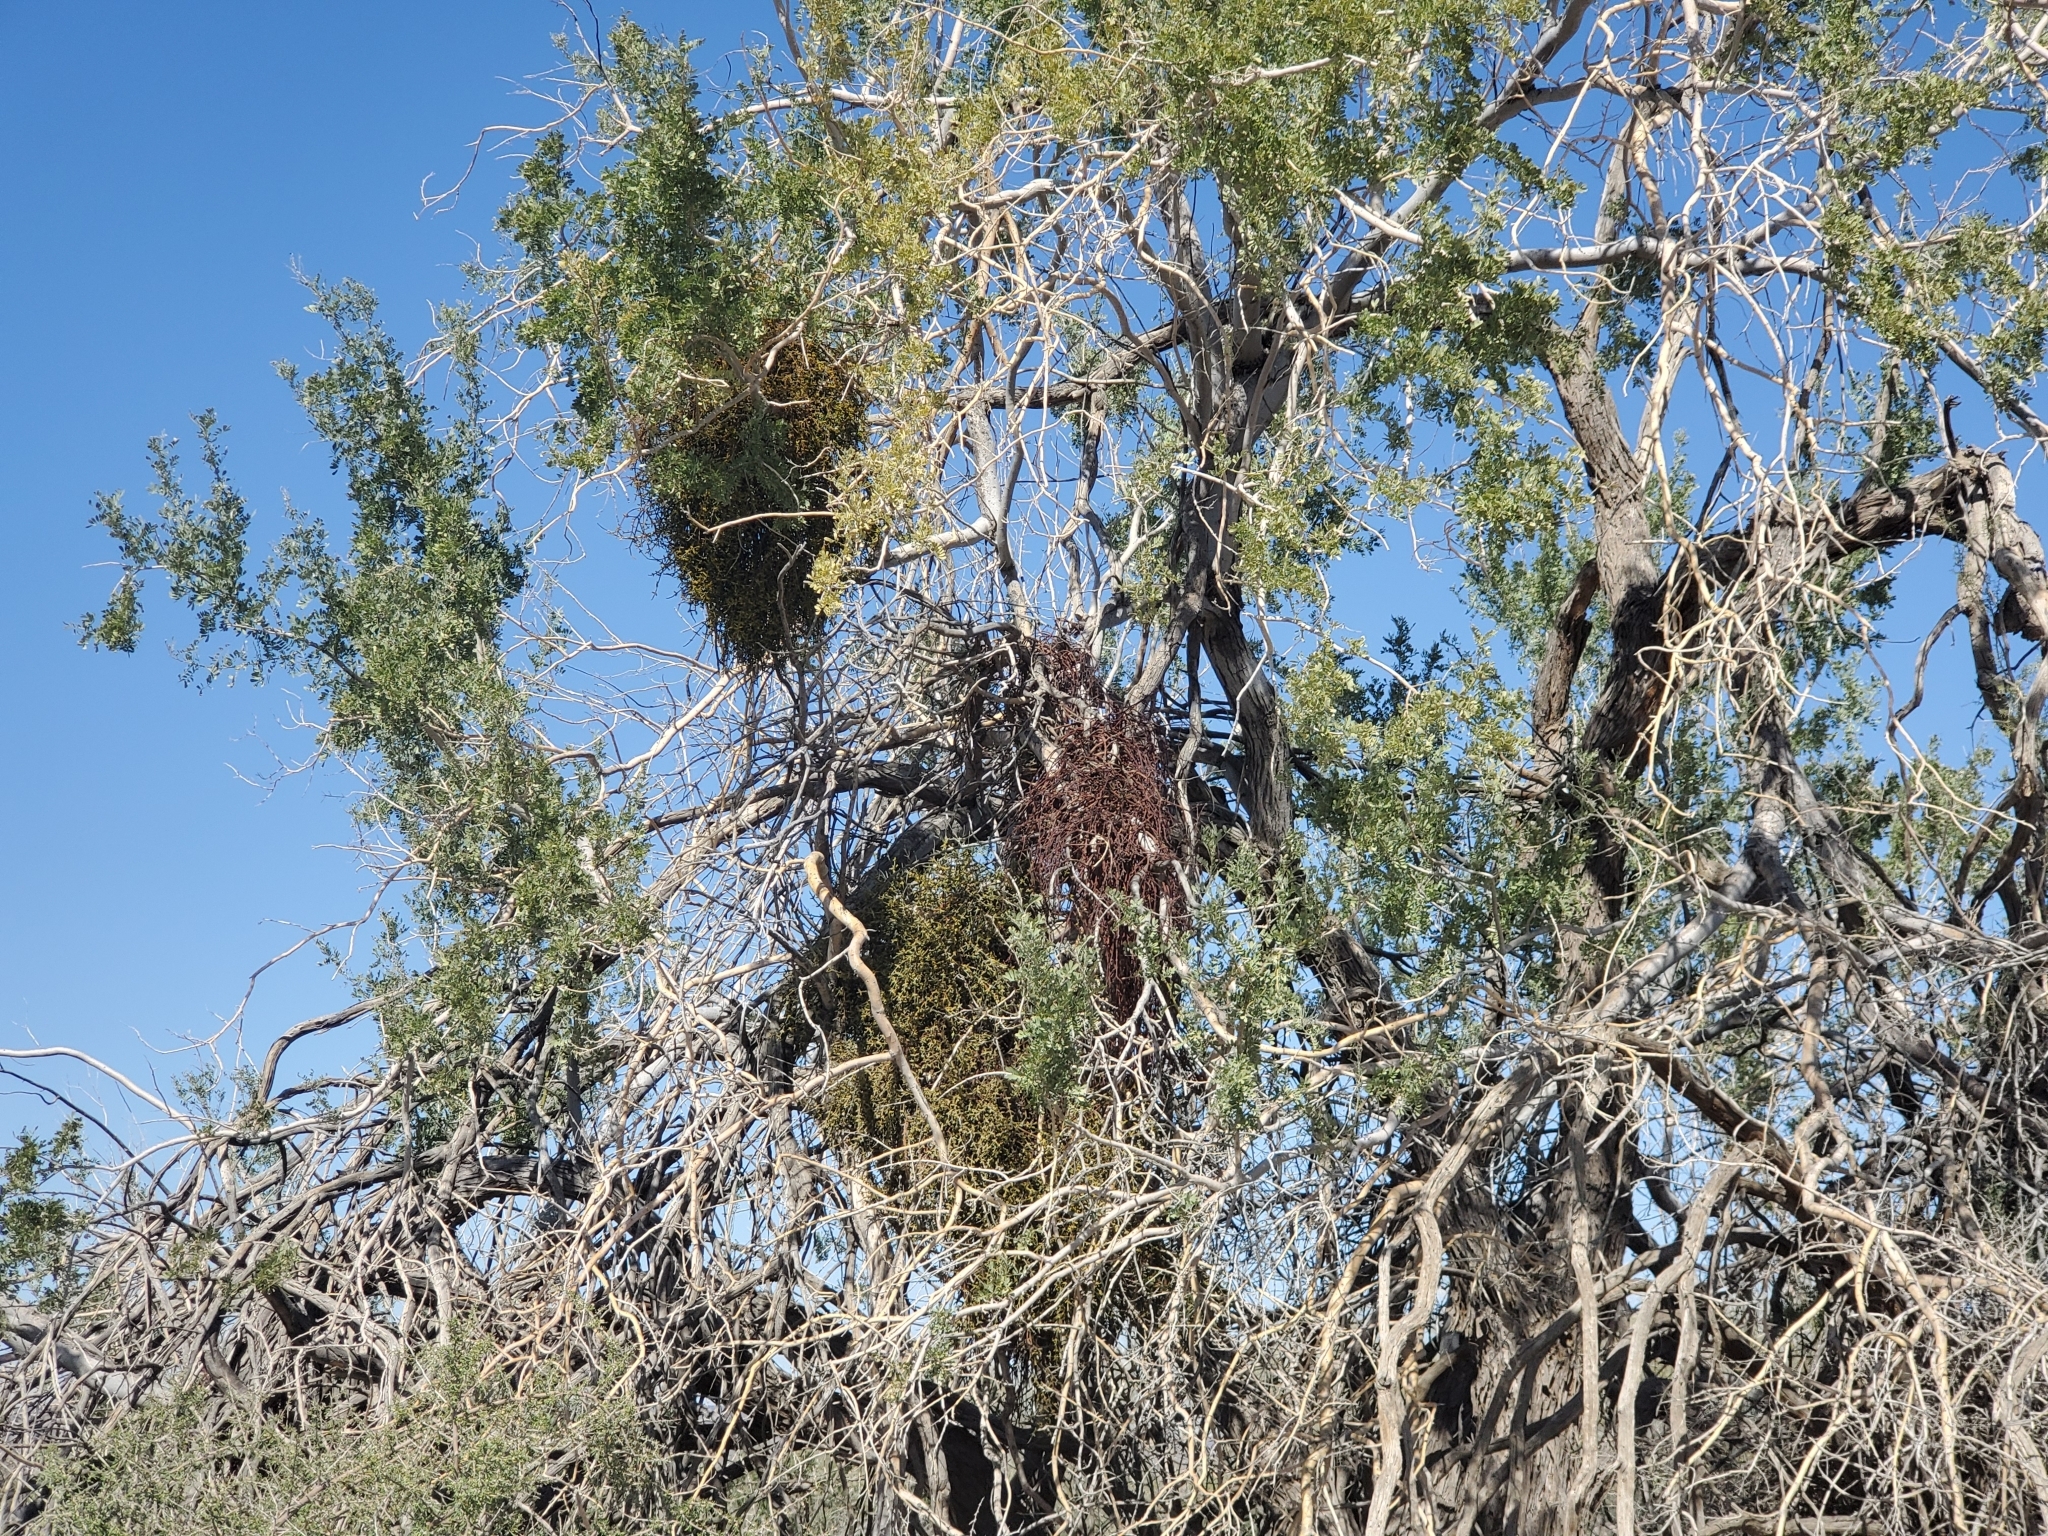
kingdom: Plantae
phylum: Tracheophyta
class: Magnoliopsida
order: Fabales
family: Fabaceae
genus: Olneya
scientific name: Olneya tesota
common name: Desert ironwood
